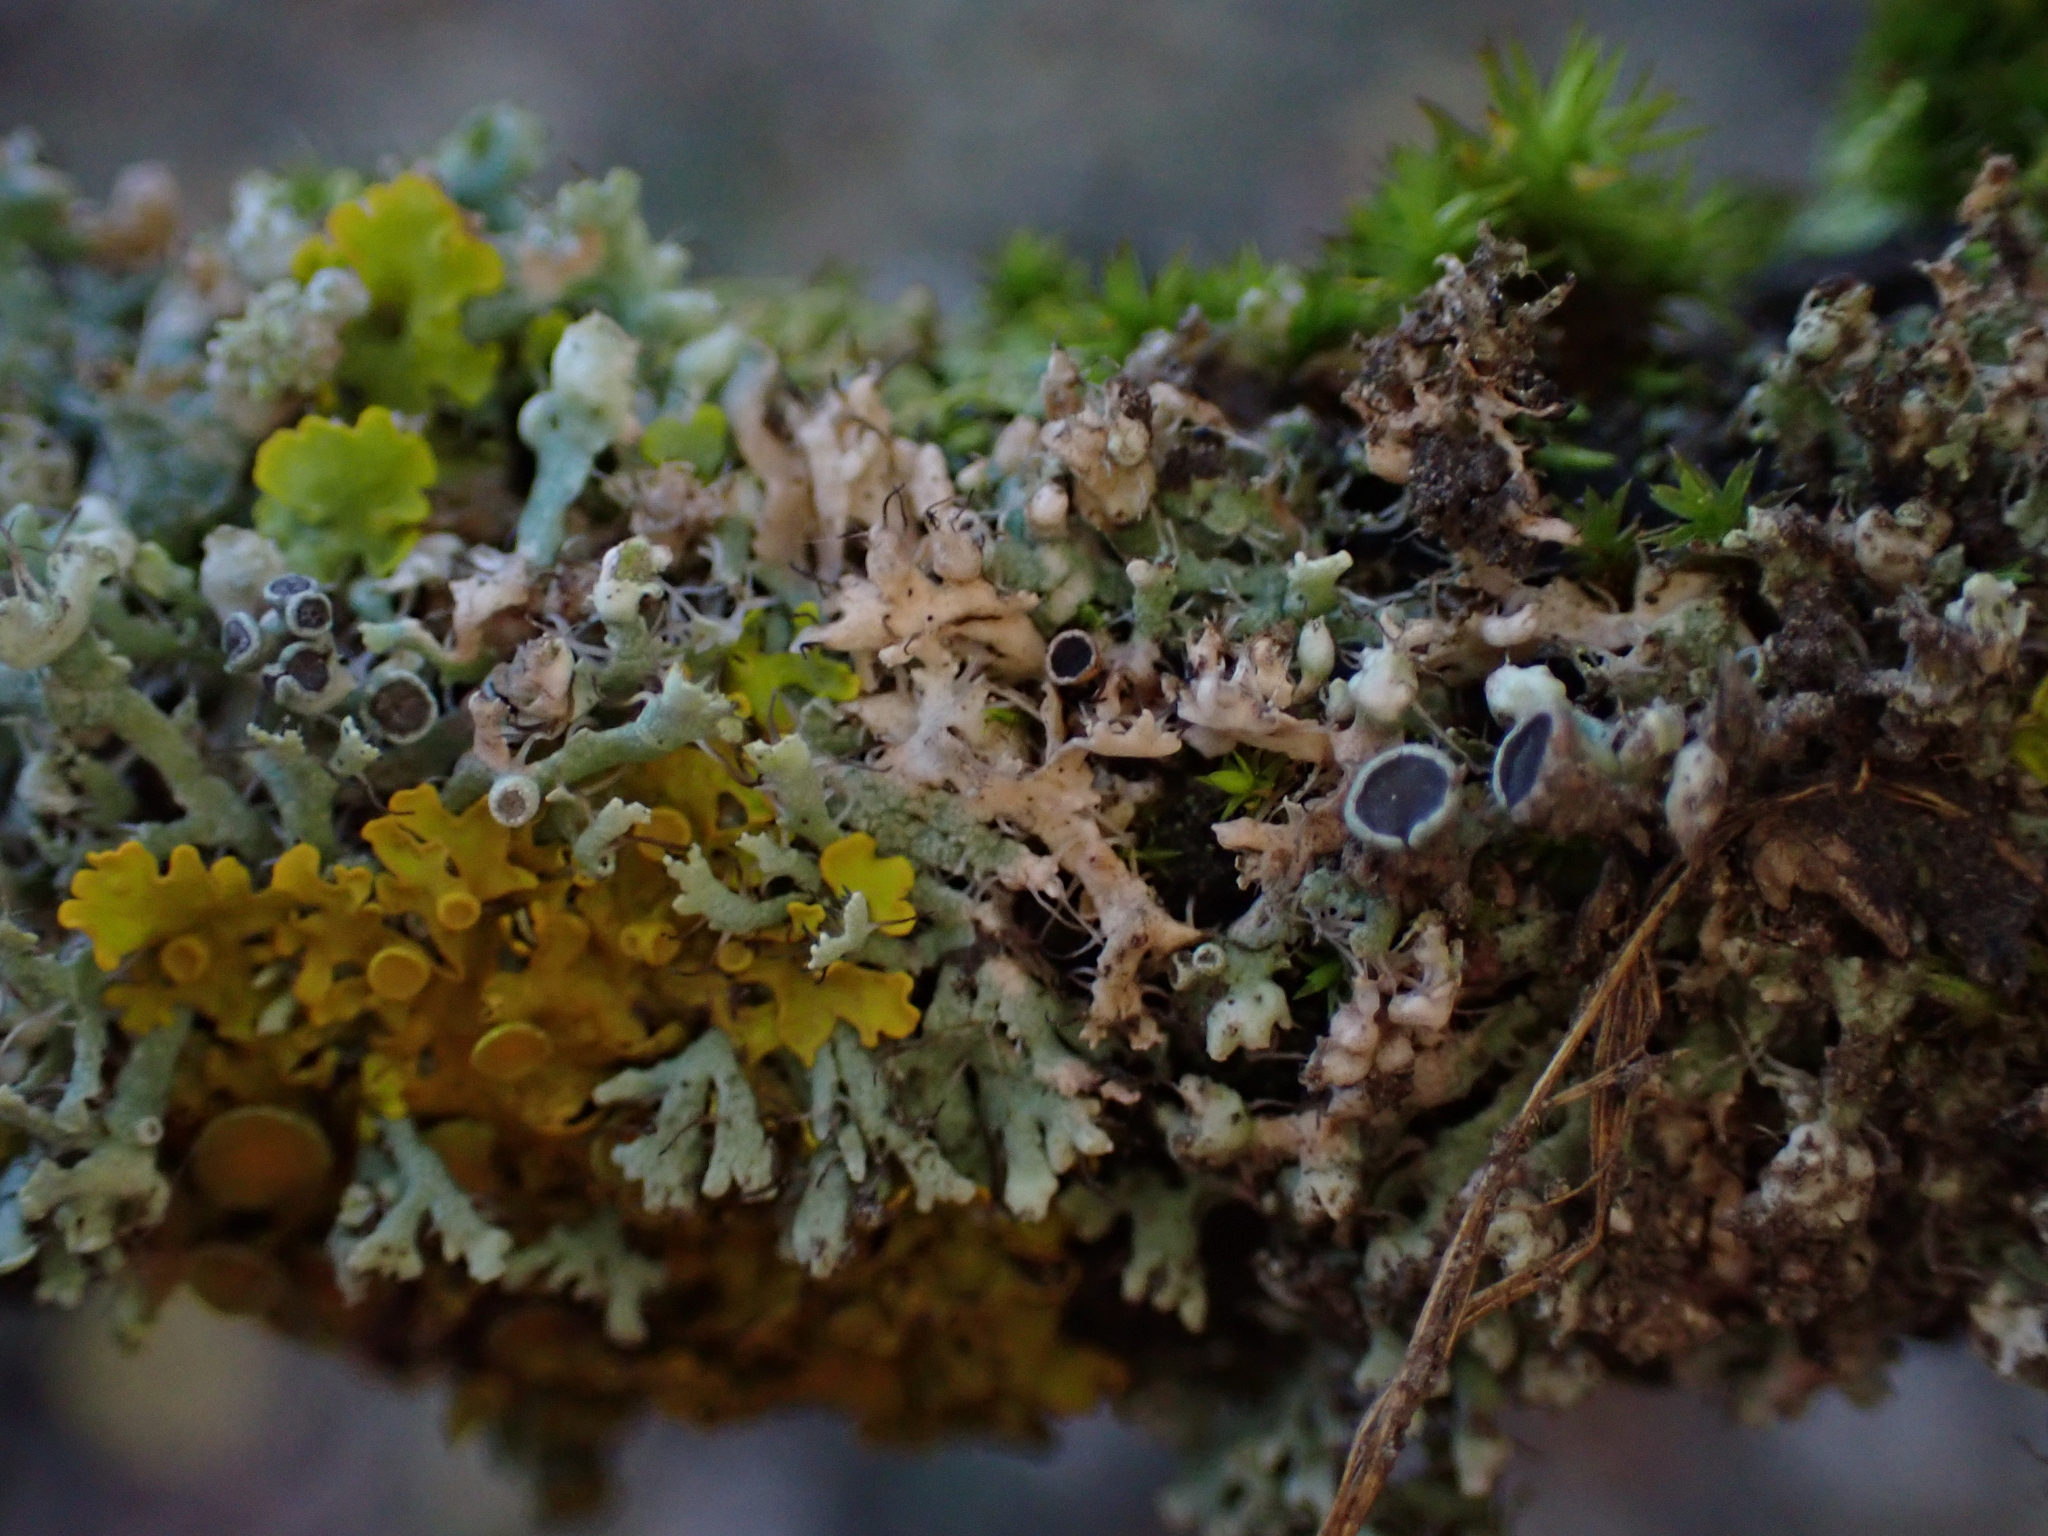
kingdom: Fungi
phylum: Ascomycota
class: Lecanoromycetes
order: Caliciales
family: Physciaceae
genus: Physcia
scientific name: Physcia adscendens
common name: Hooded rosette lichen
